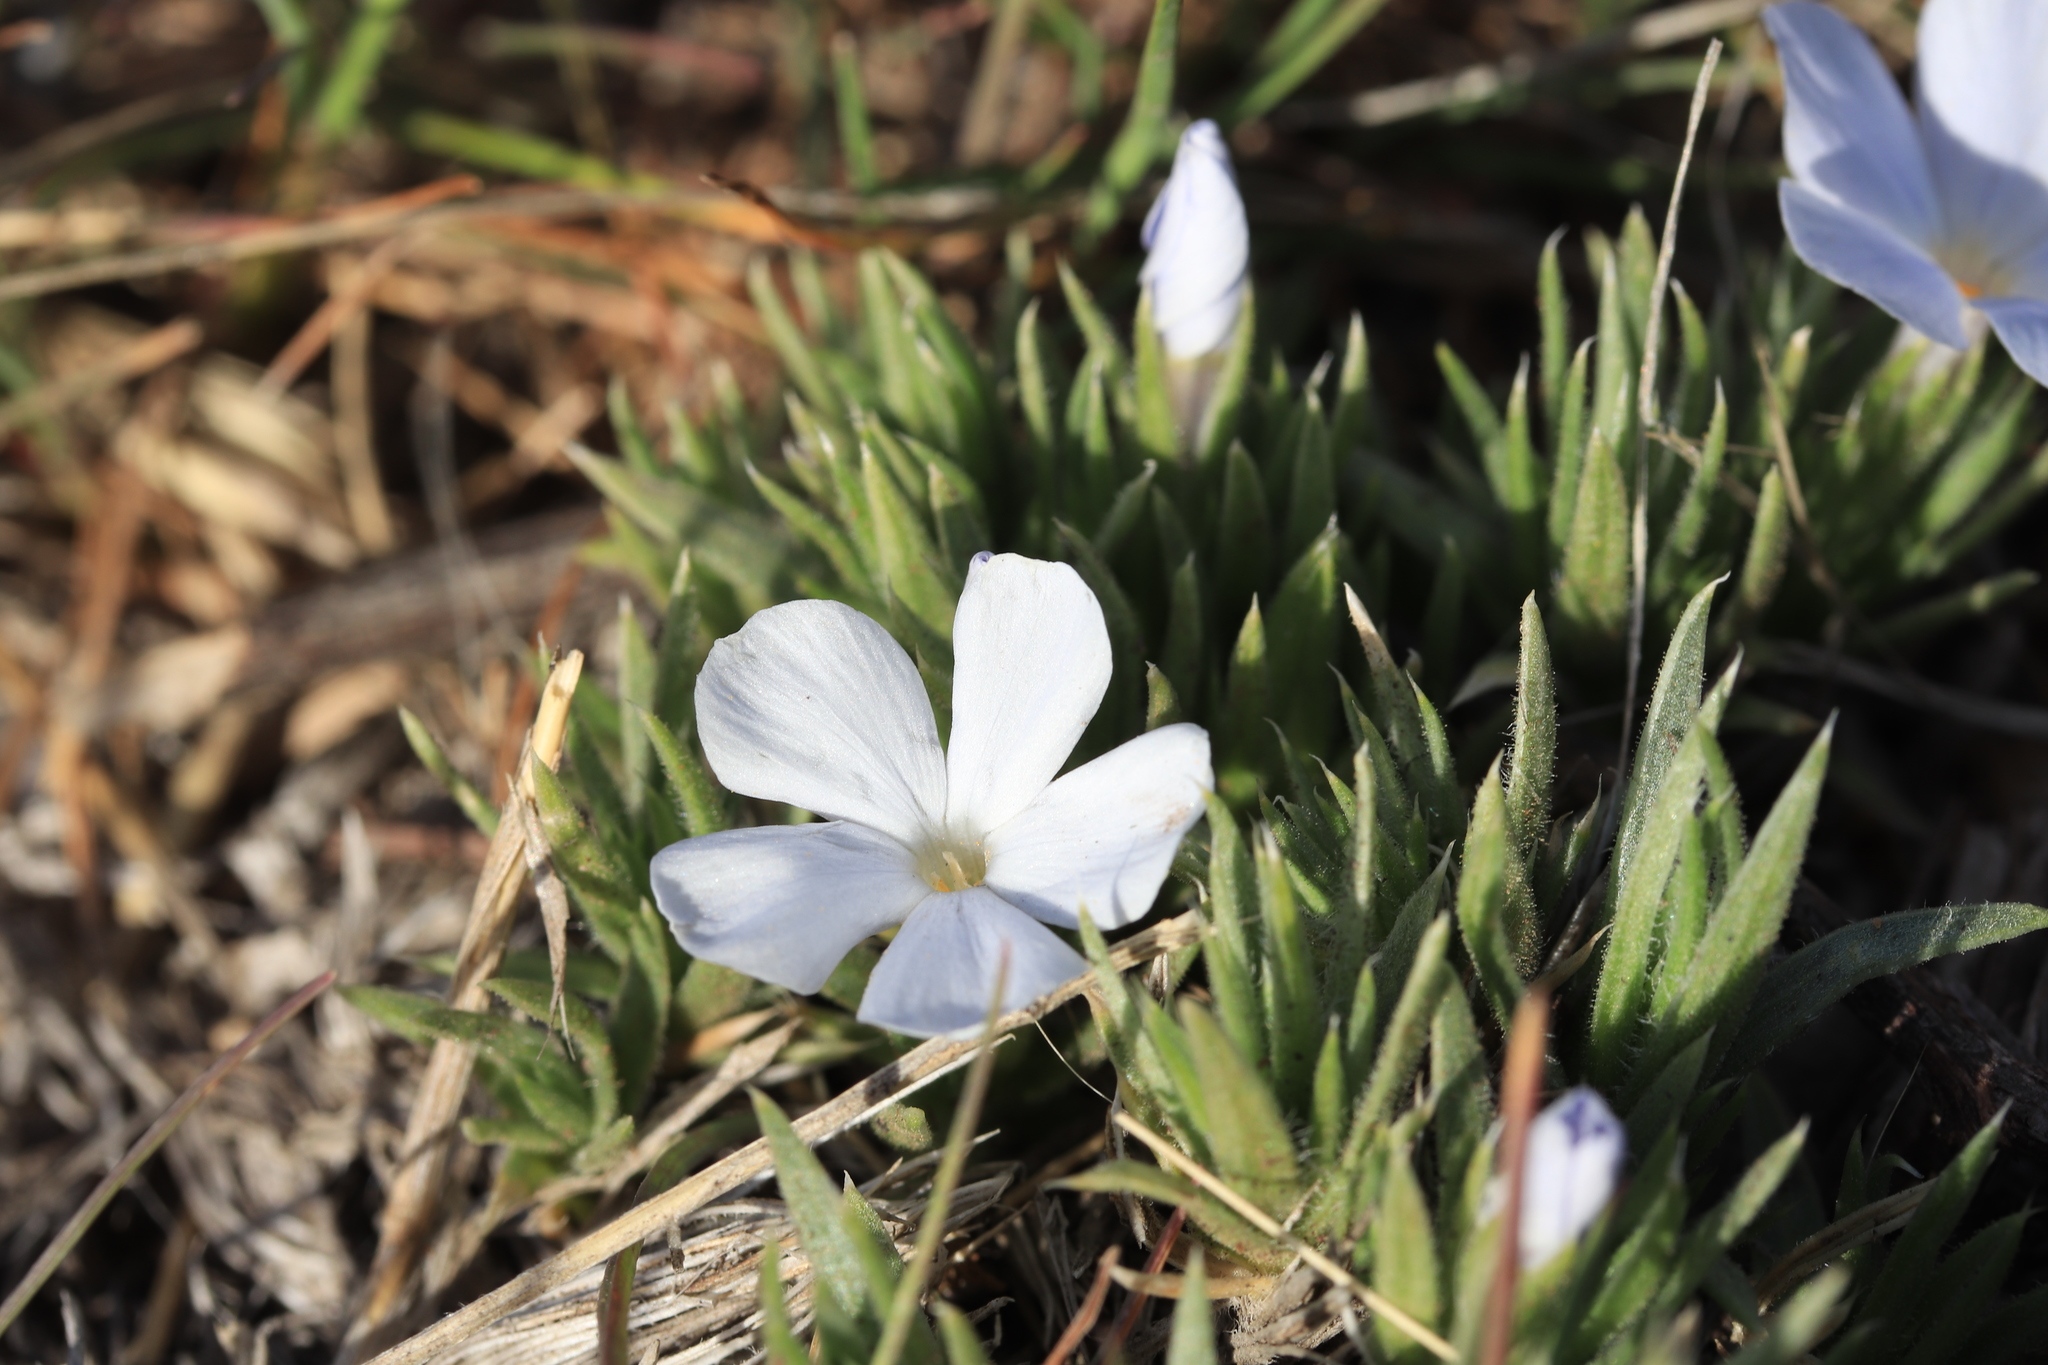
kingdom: Plantae
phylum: Tracheophyta
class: Magnoliopsida
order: Ericales
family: Polemoniaceae
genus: Phlox
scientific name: Phlox missoulensis
